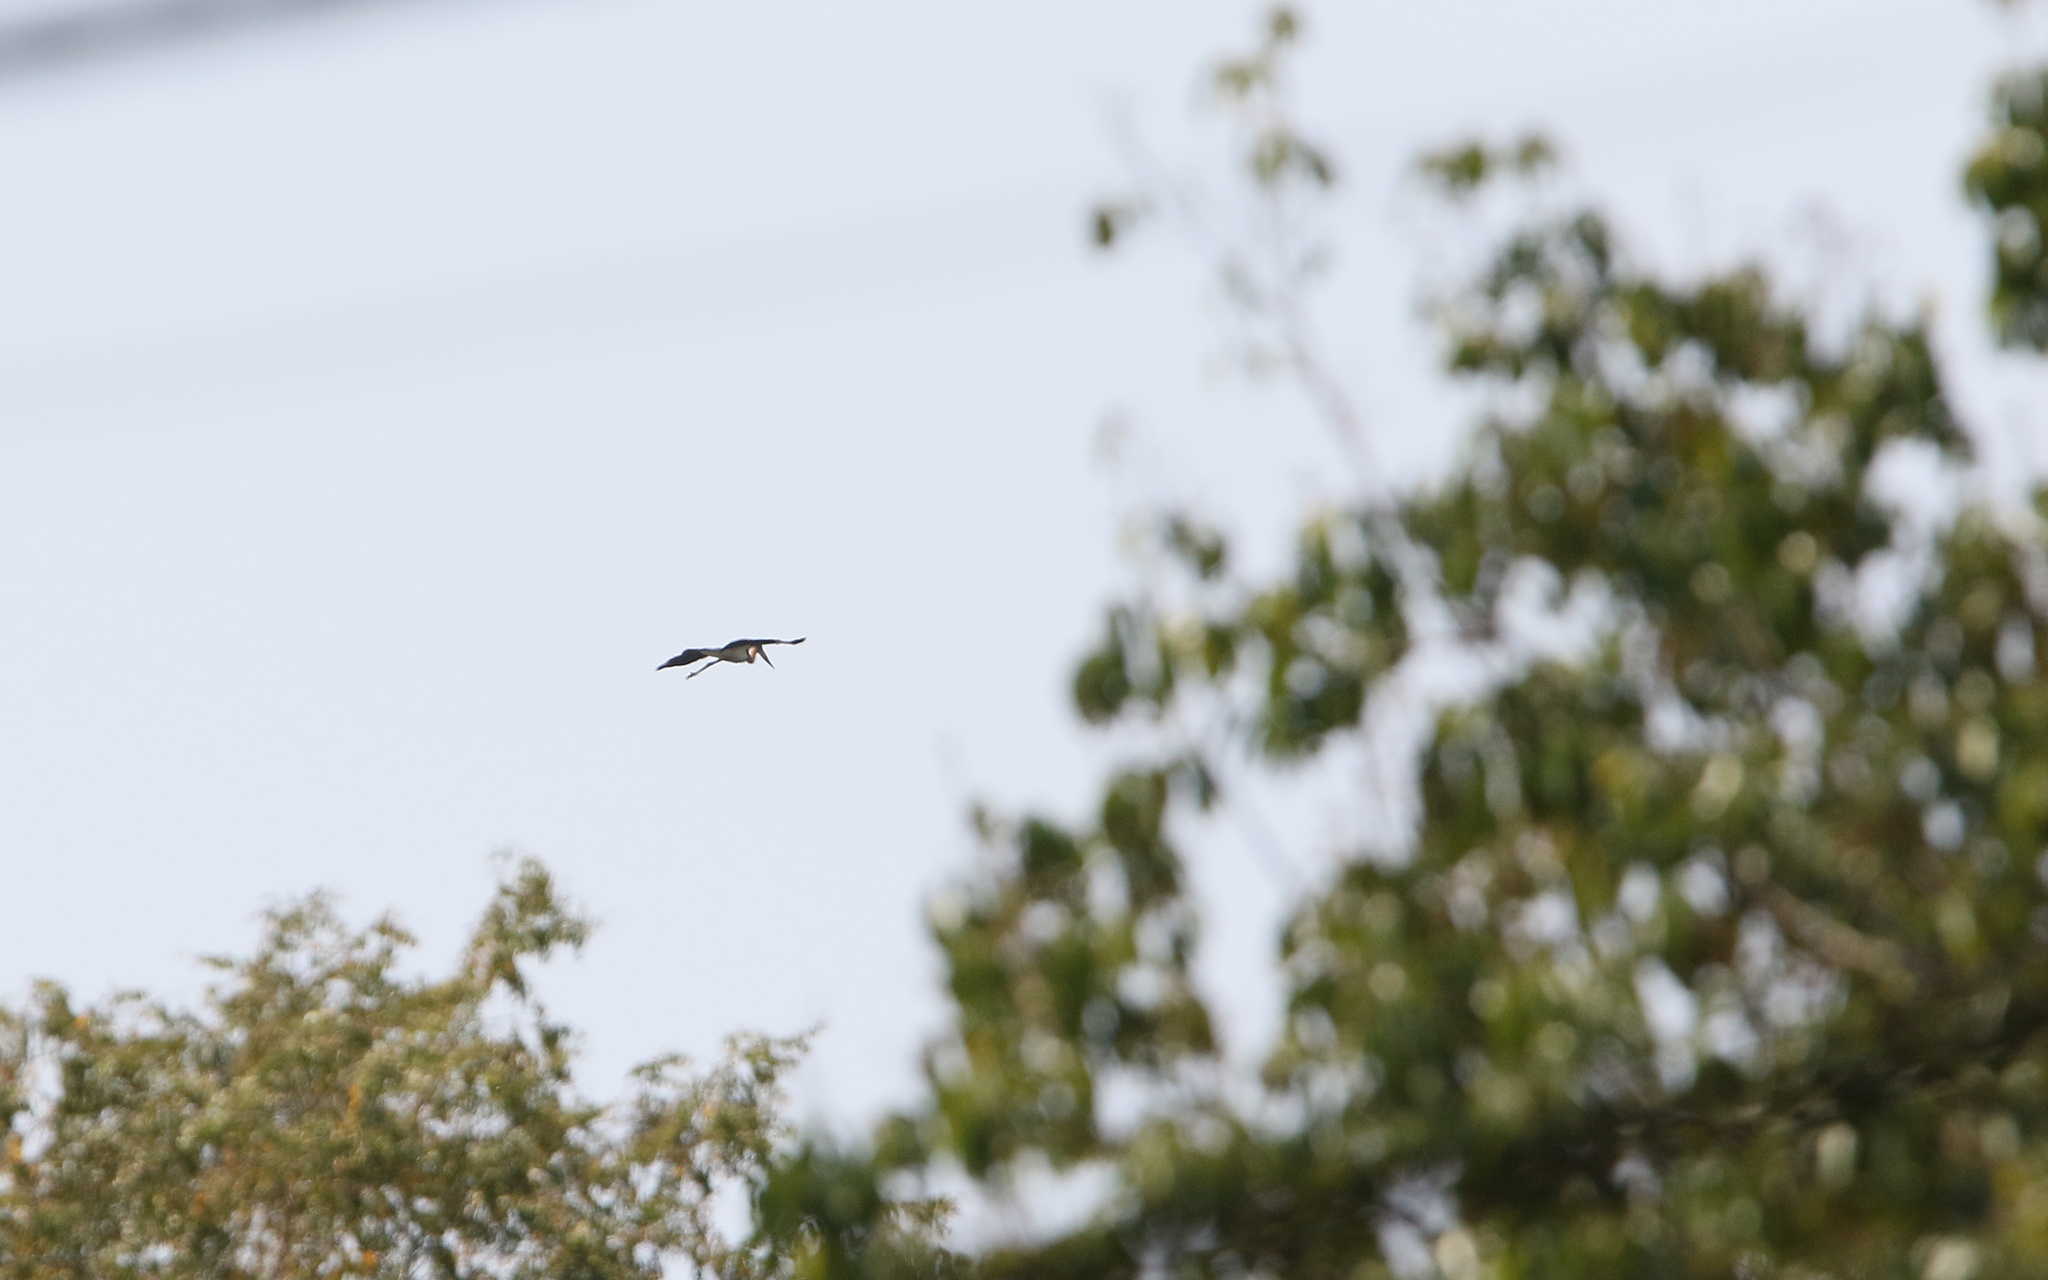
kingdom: Animalia
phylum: Chordata
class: Aves
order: Ciconiiformes
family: Ciconiidae
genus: Leptoptilos
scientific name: Leptoptilos javanicus
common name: Lesser adjutant
